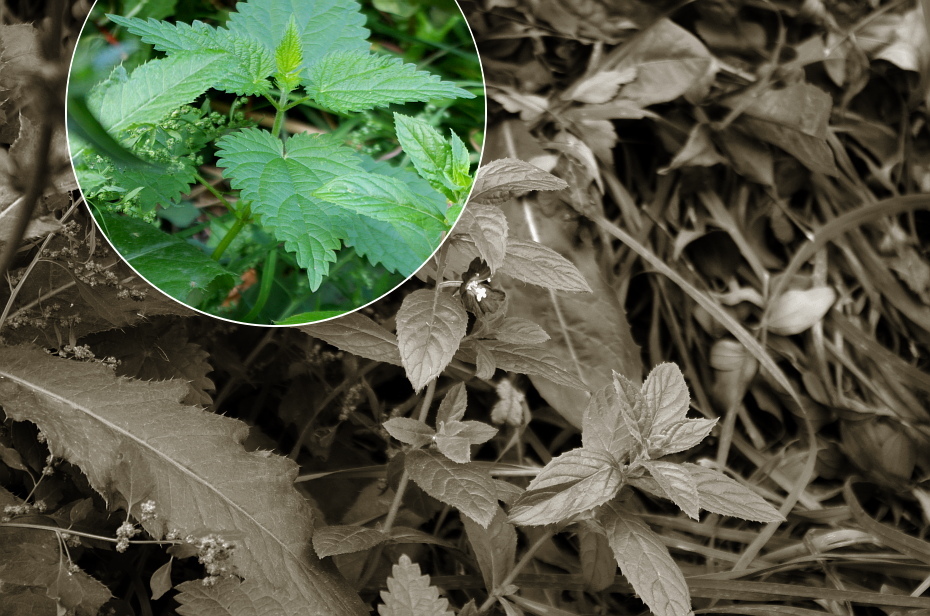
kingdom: Plantae
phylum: Tracheophyta
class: Magnoliopsida
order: Rosales
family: Urticaceae
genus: Urtica
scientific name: Urtica dioica
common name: Common nettle
